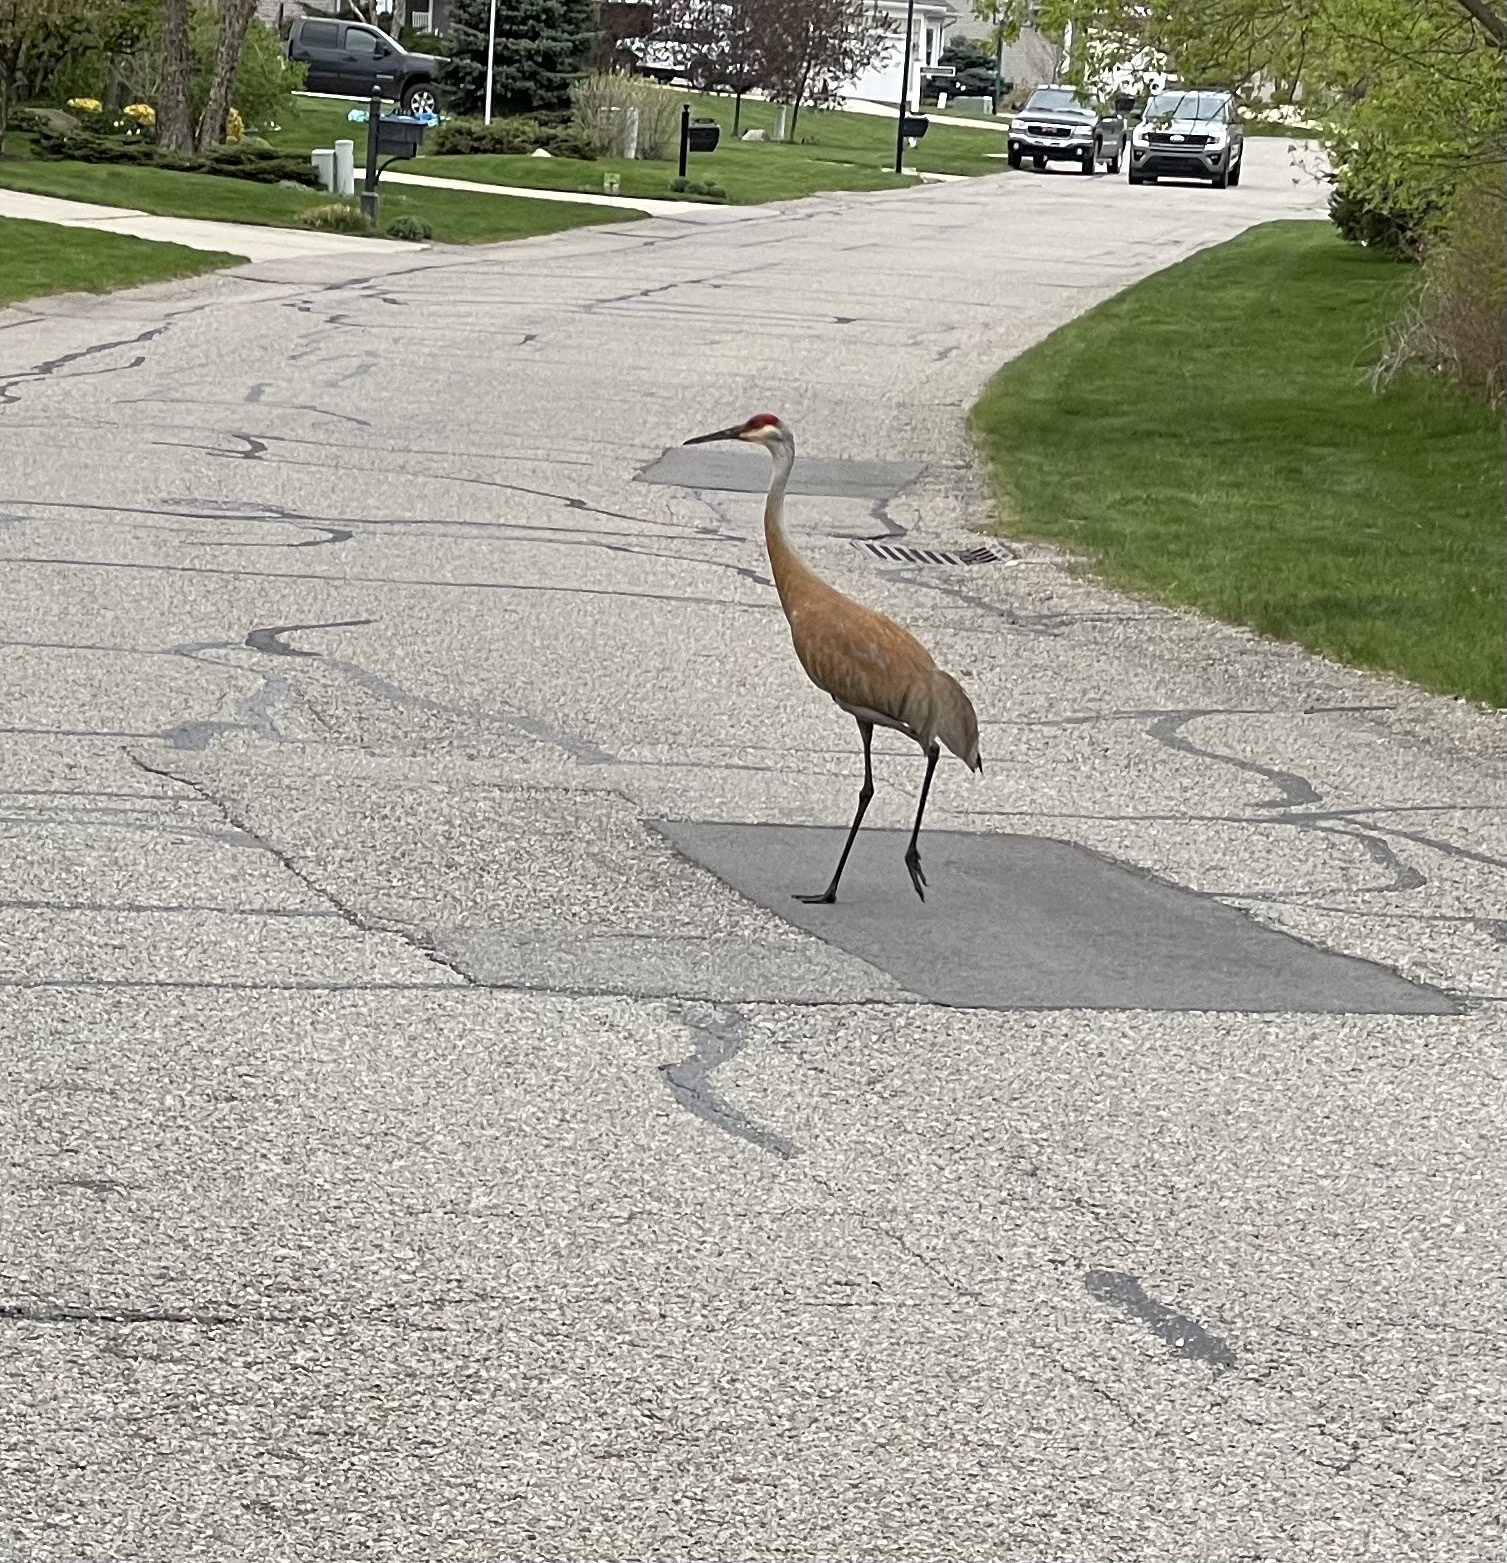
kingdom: Animalia
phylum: Chordata
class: Aves
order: Gruiformes
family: Gruidae
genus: Grus
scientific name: Grus canadensis
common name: Sandhill crane
